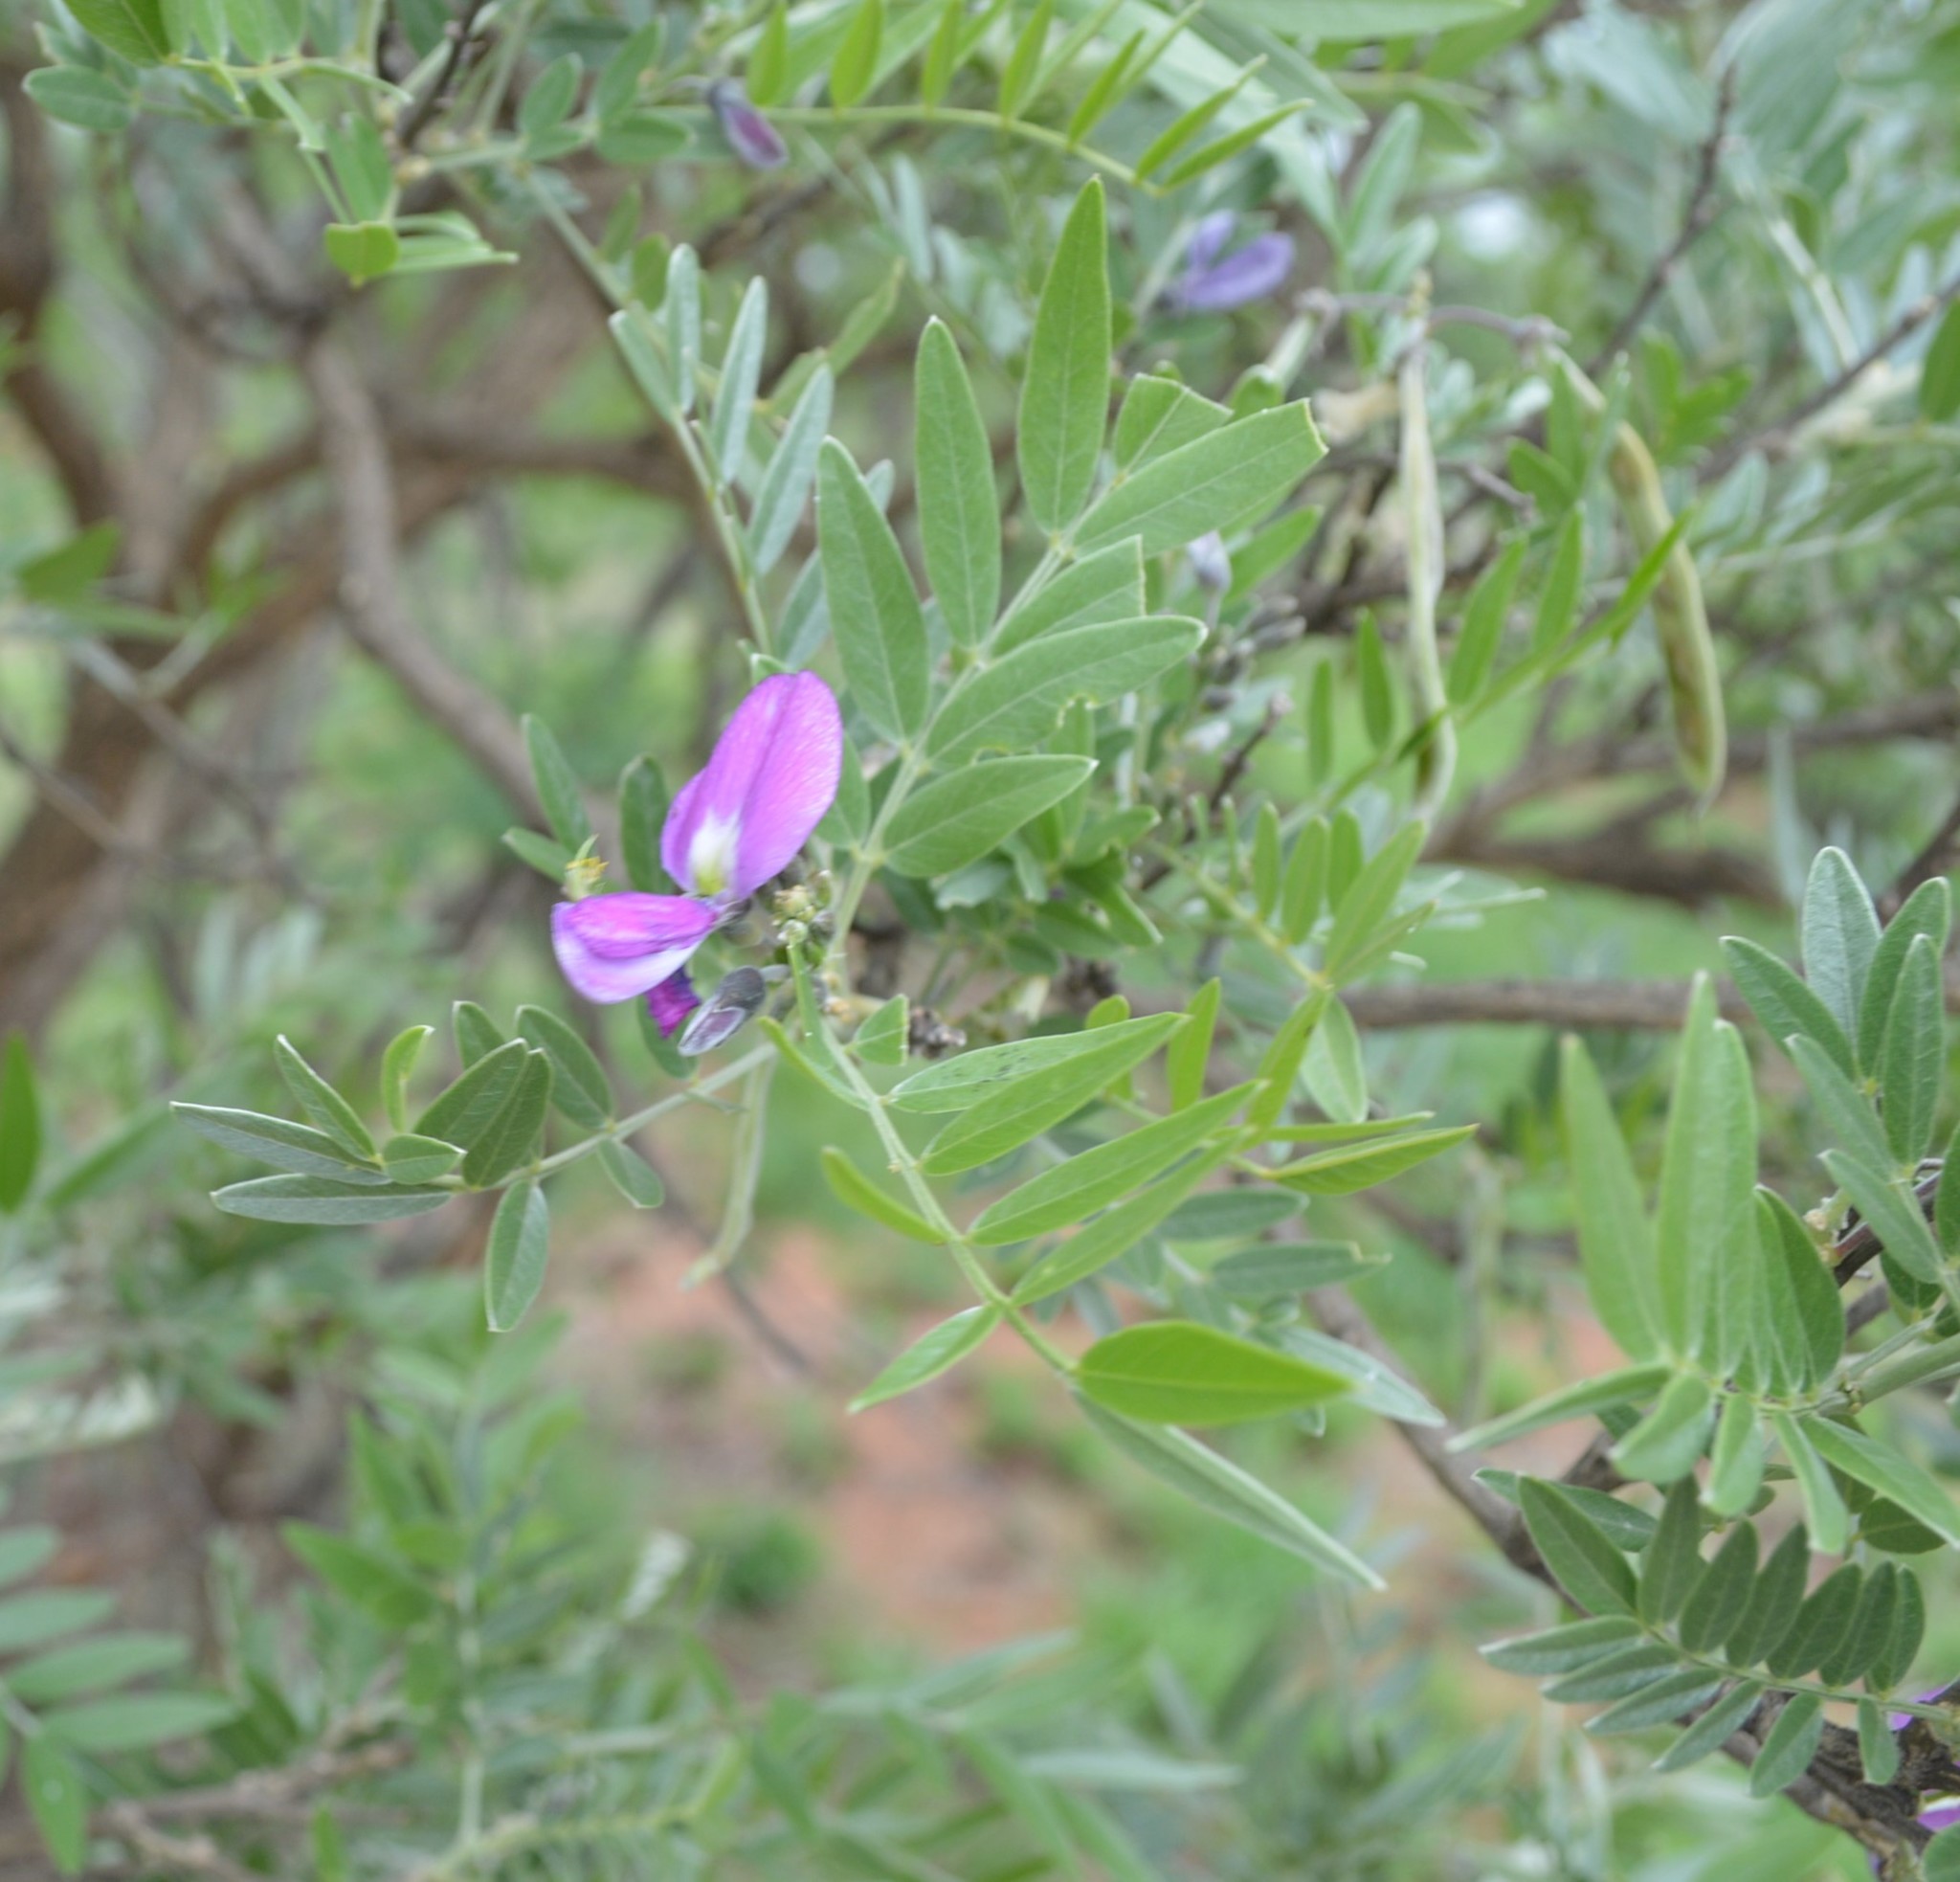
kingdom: Plantae
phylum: Tracheophyta
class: Magnoliopsida
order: Fabales
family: Fabaceae
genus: Mundulea
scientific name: Mundulea sericea
